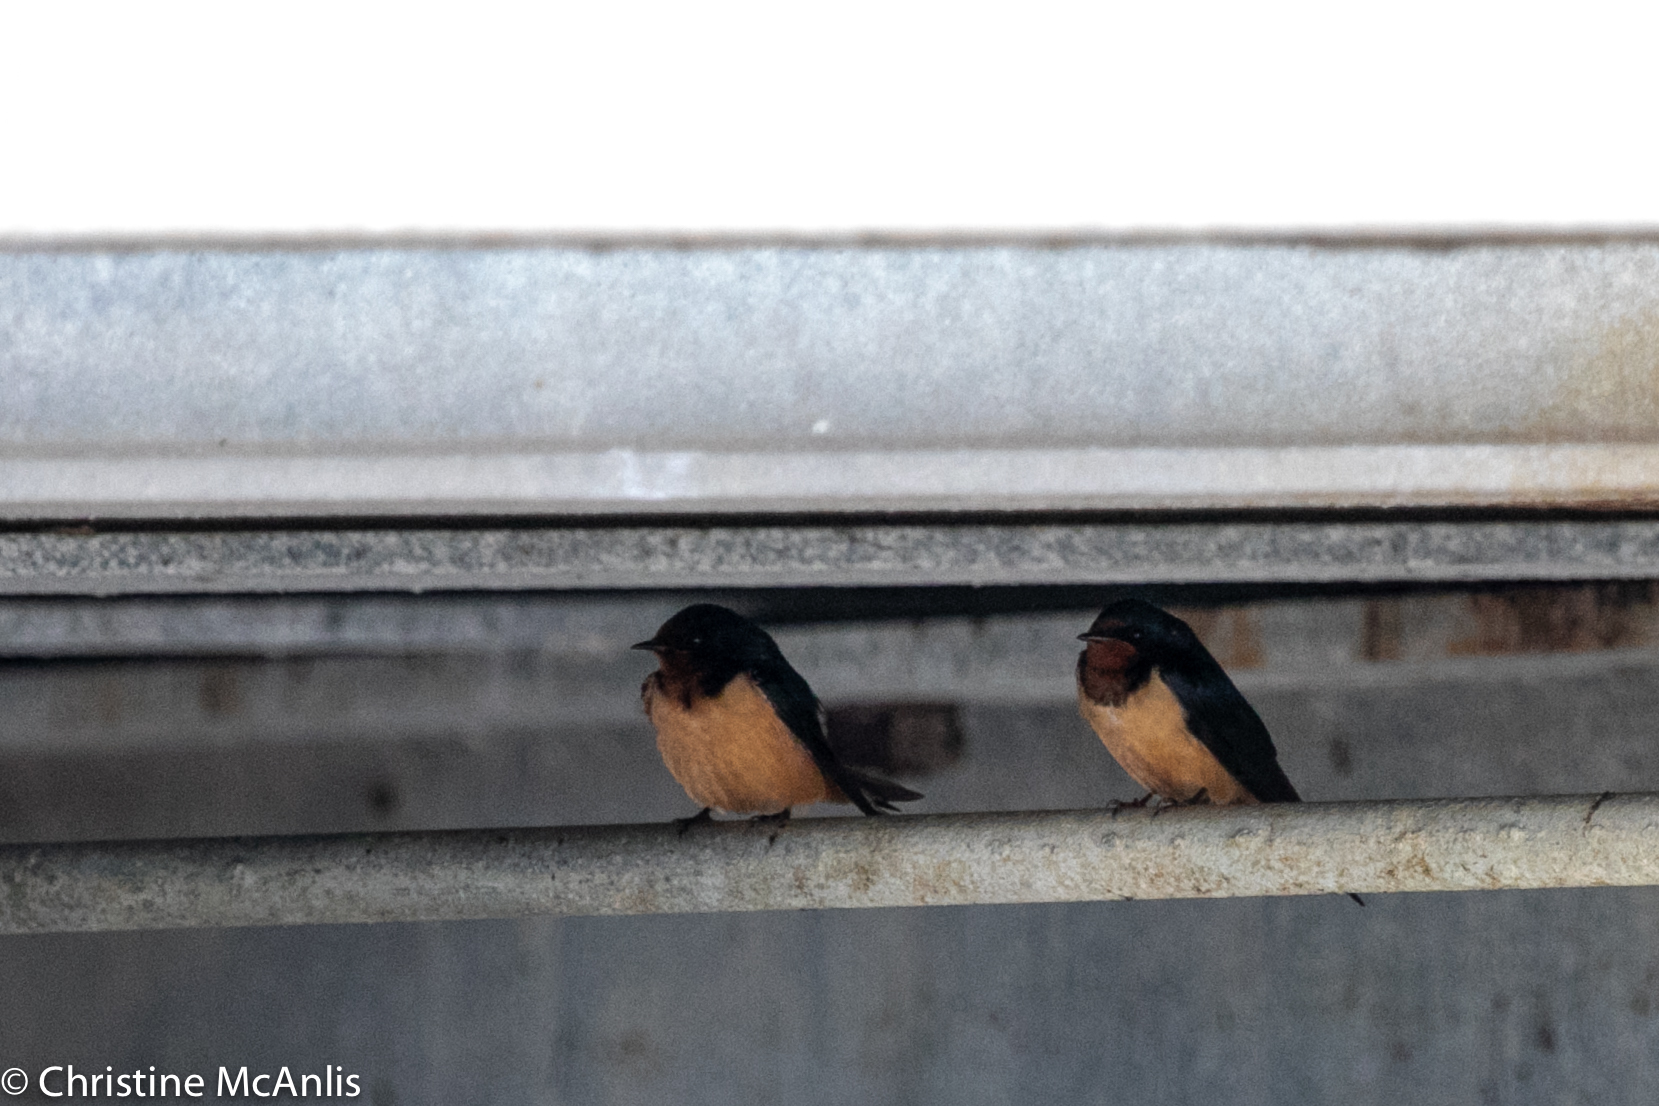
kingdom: Animalia
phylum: Chordata
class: Aves
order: Passeriformes
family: Hirundinidae
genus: Hirundo
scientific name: Hirundo rustica
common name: Barn swallow
